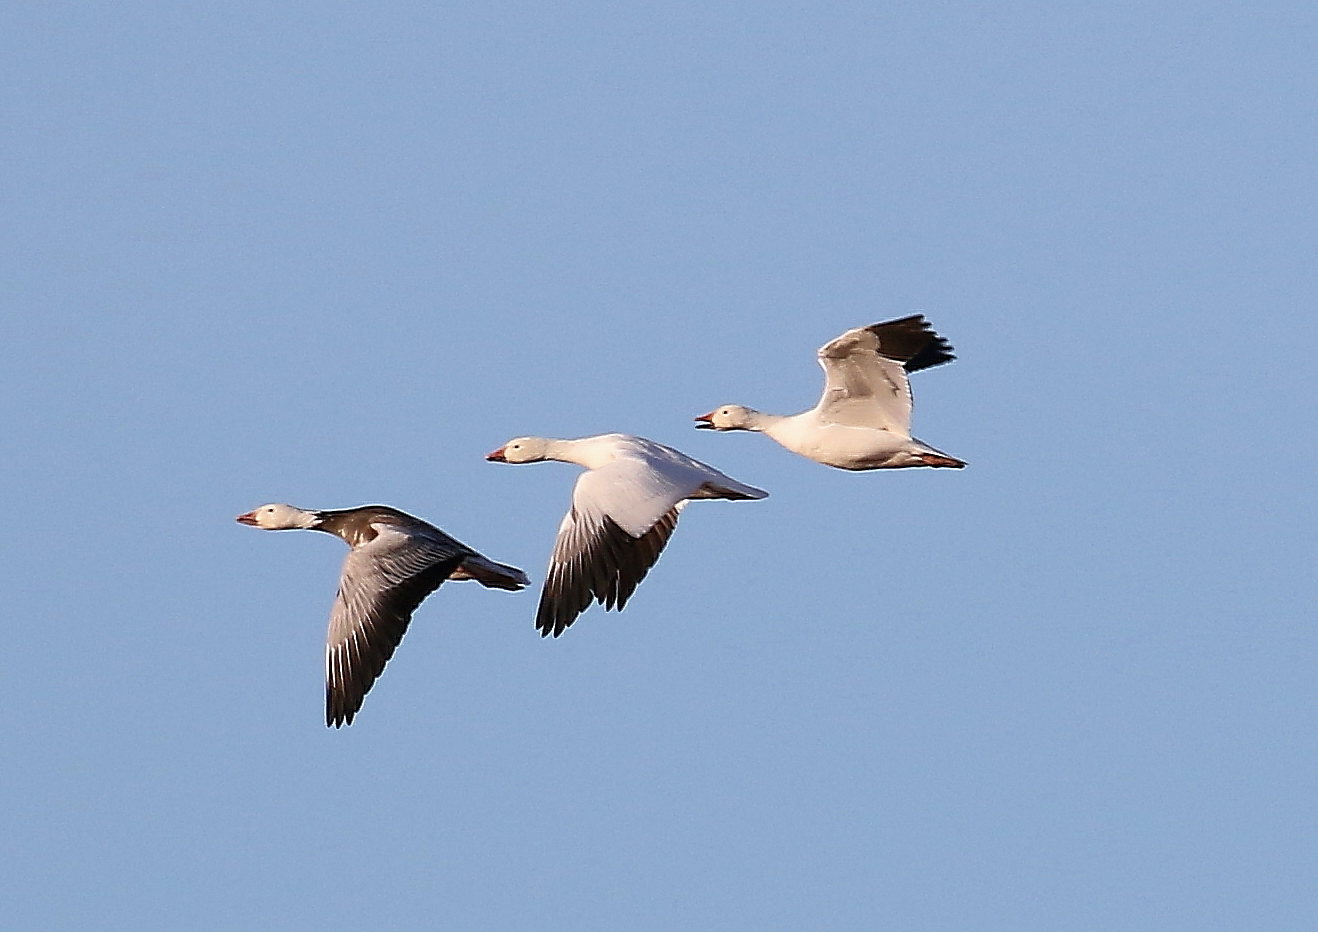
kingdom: Animalia
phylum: Chordata
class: Aves
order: Anseriformes
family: Anatidae
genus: Anser
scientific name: Anser caerulescens
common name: Snow goose
